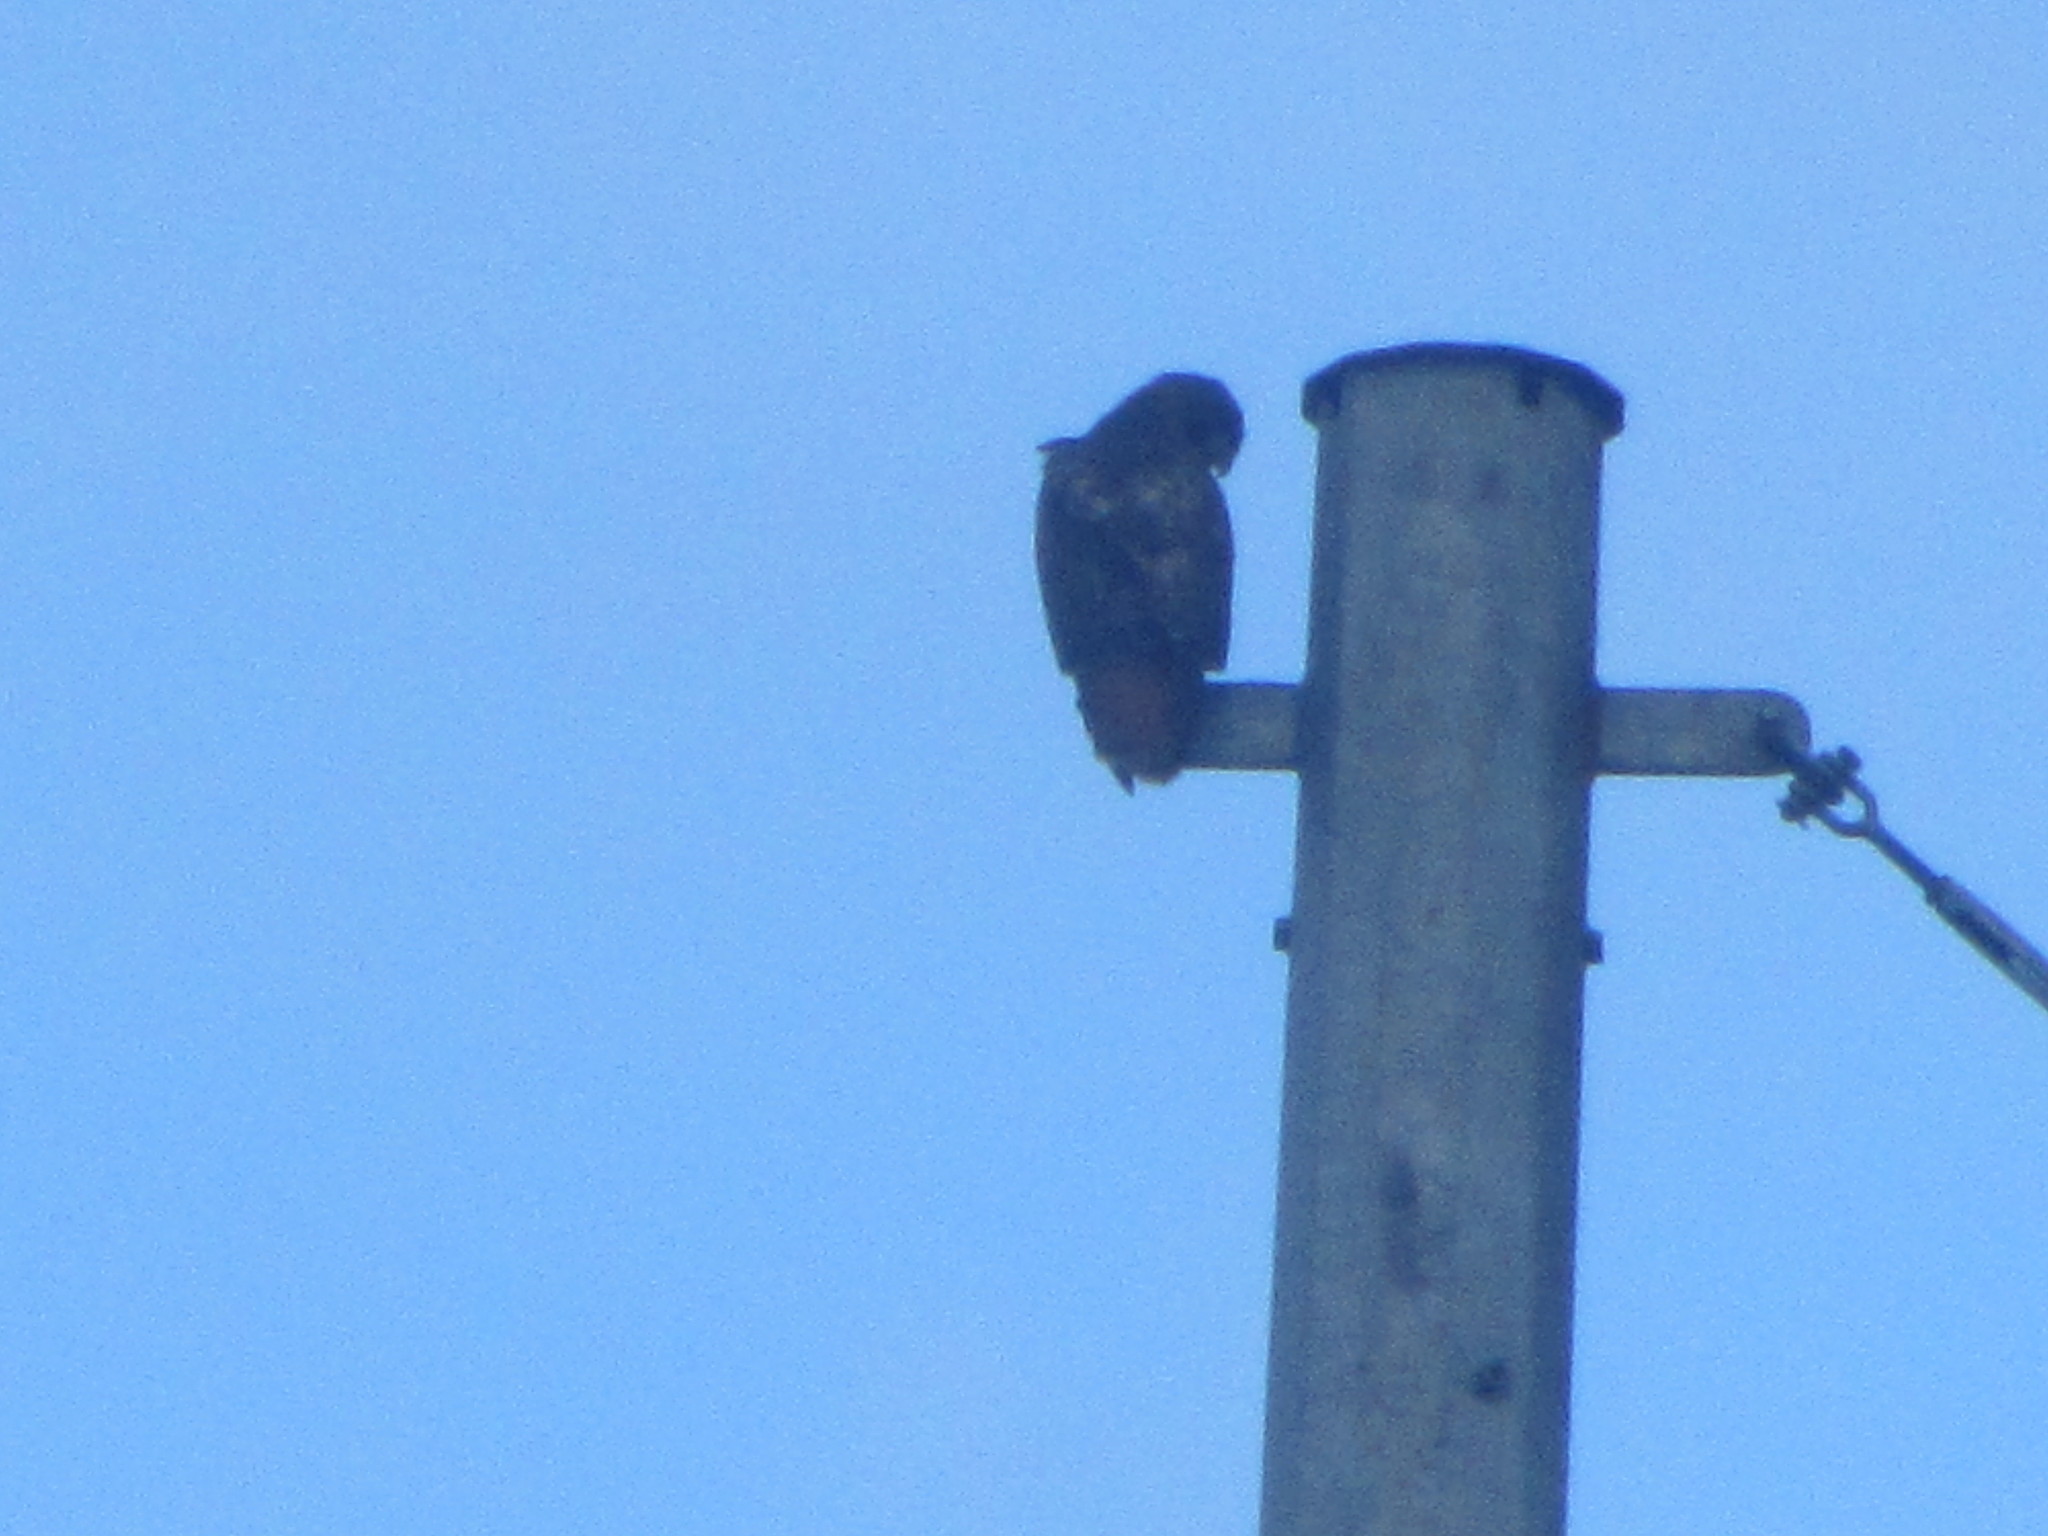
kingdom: Animalia
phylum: Chordata
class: Aves
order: Accipitriformes
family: Accipitridae
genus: Buteo
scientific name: Buteo jamaicensis
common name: Red-tailed hawk
